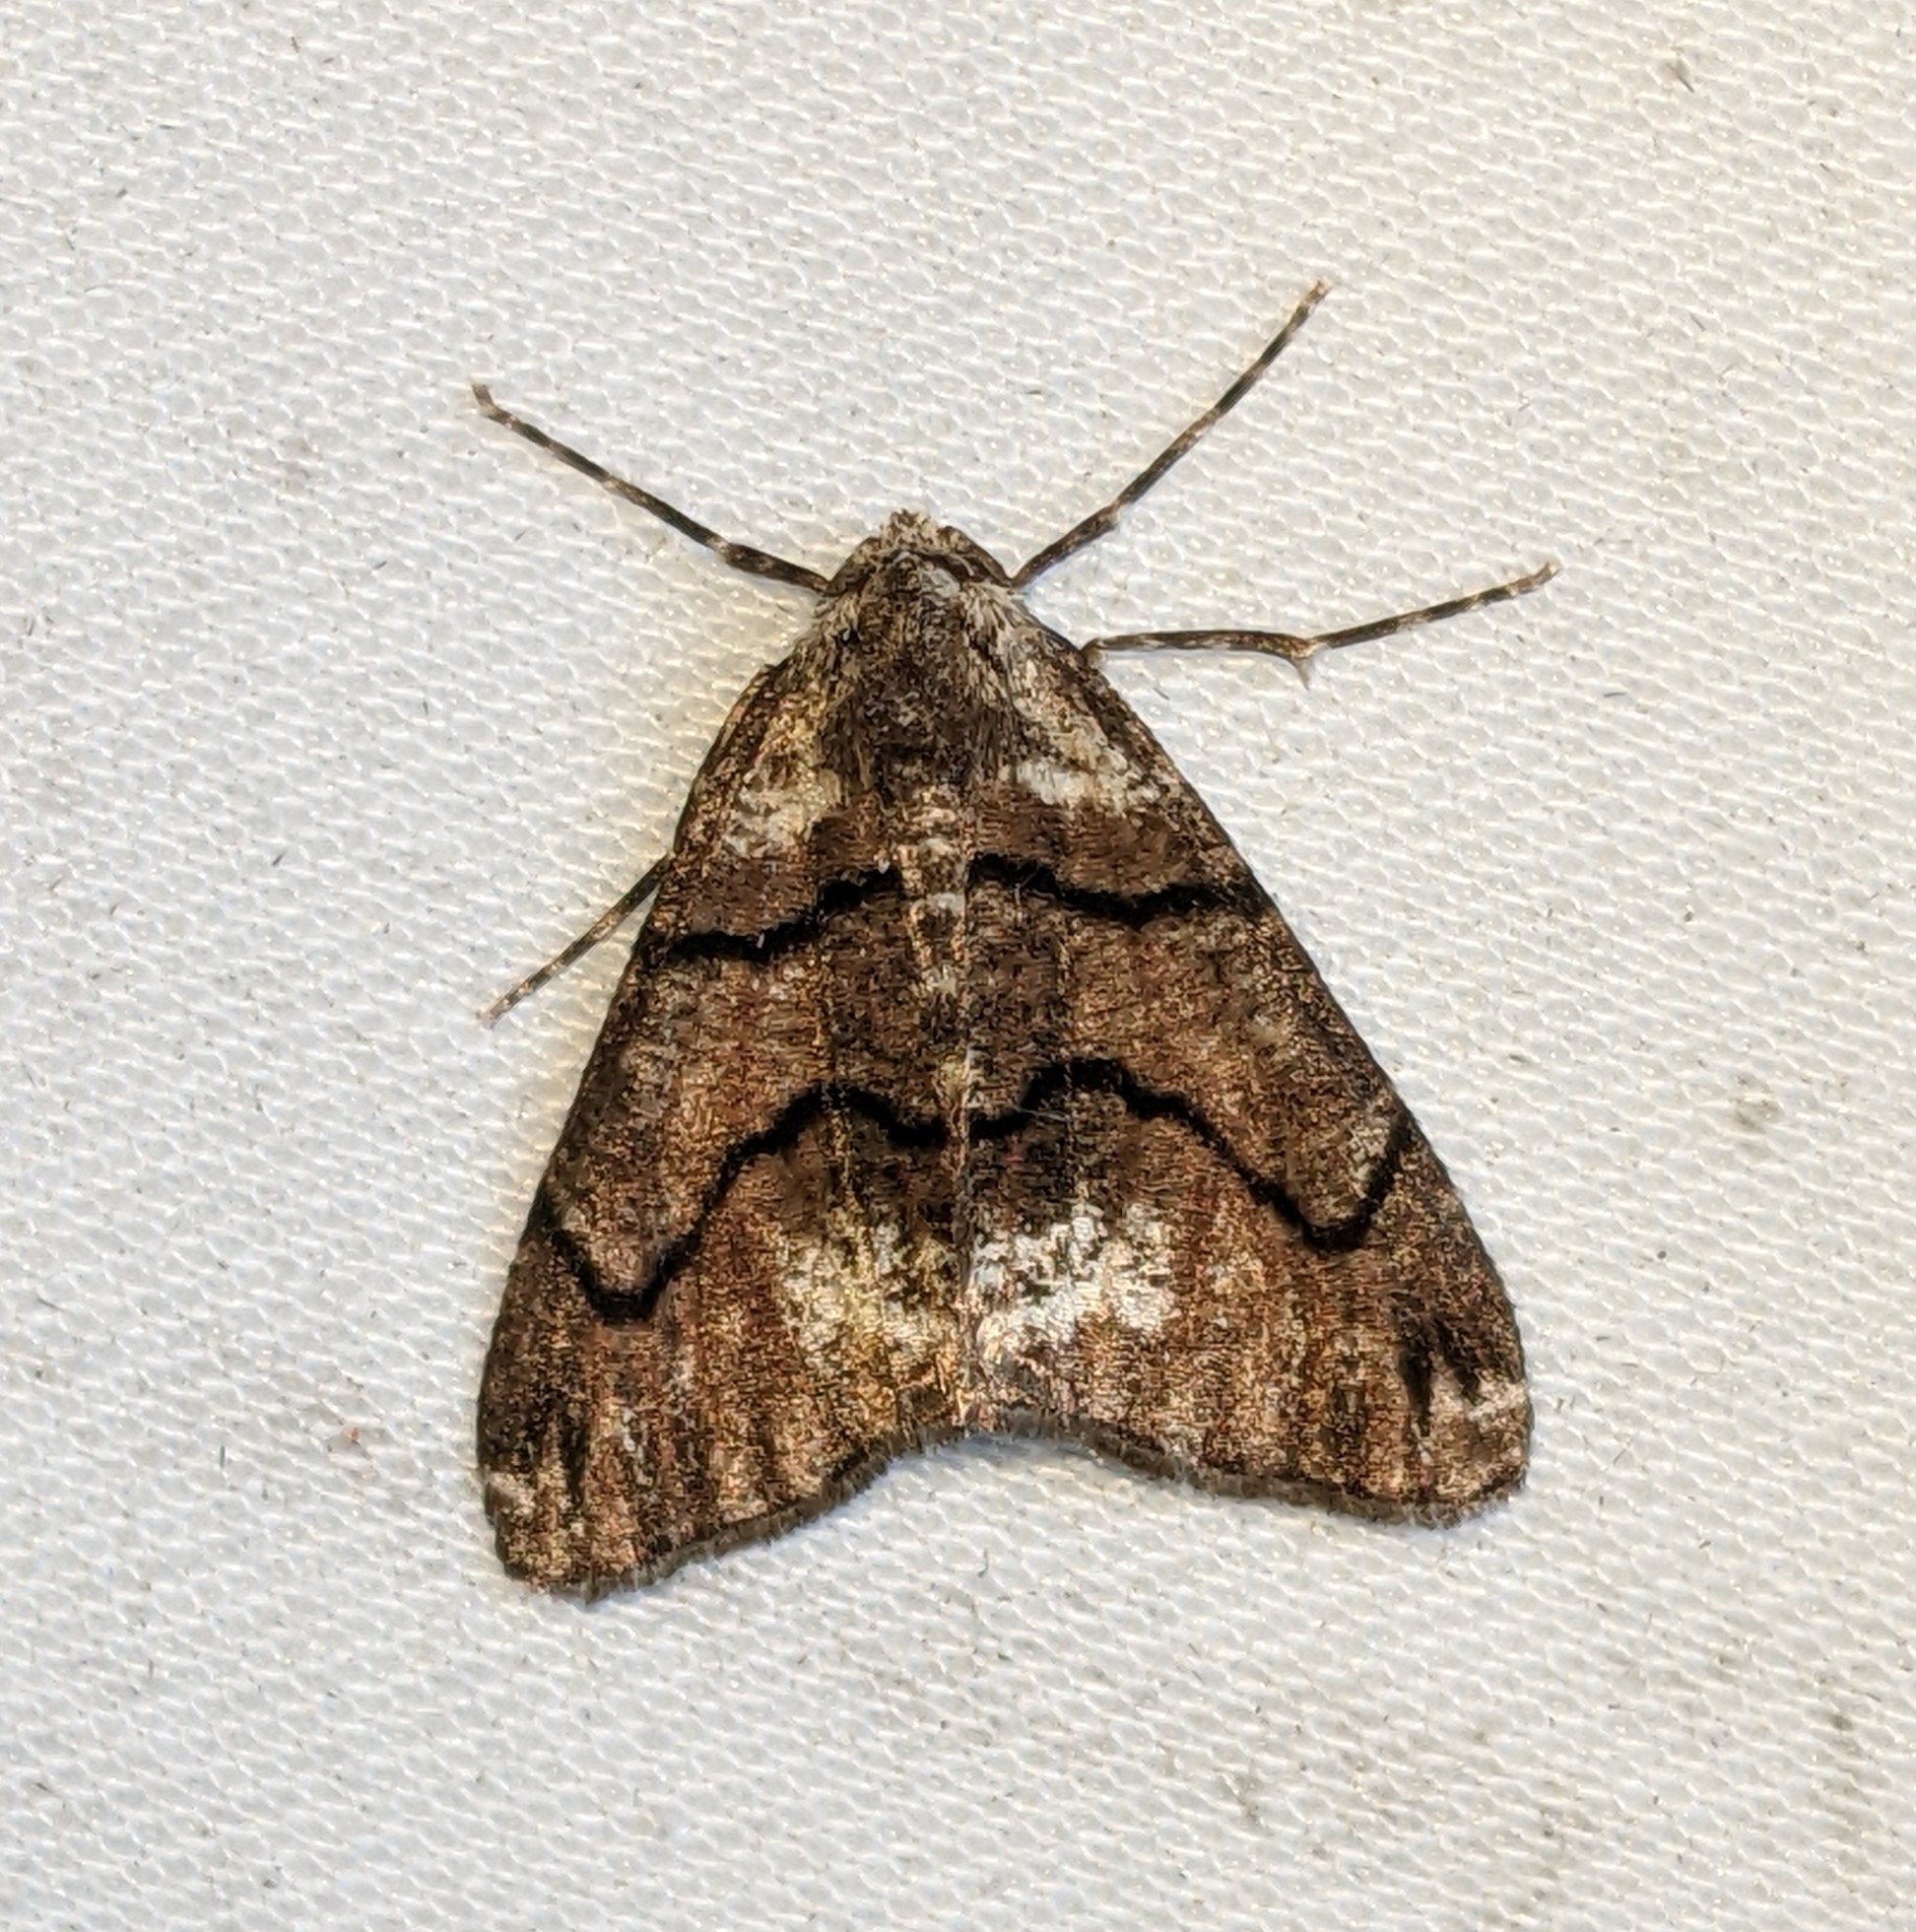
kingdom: Animalia
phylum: Arthropoda
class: Insecta
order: Lepidoptera
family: Geometridae
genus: Gabriola
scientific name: Gabriola dyari
